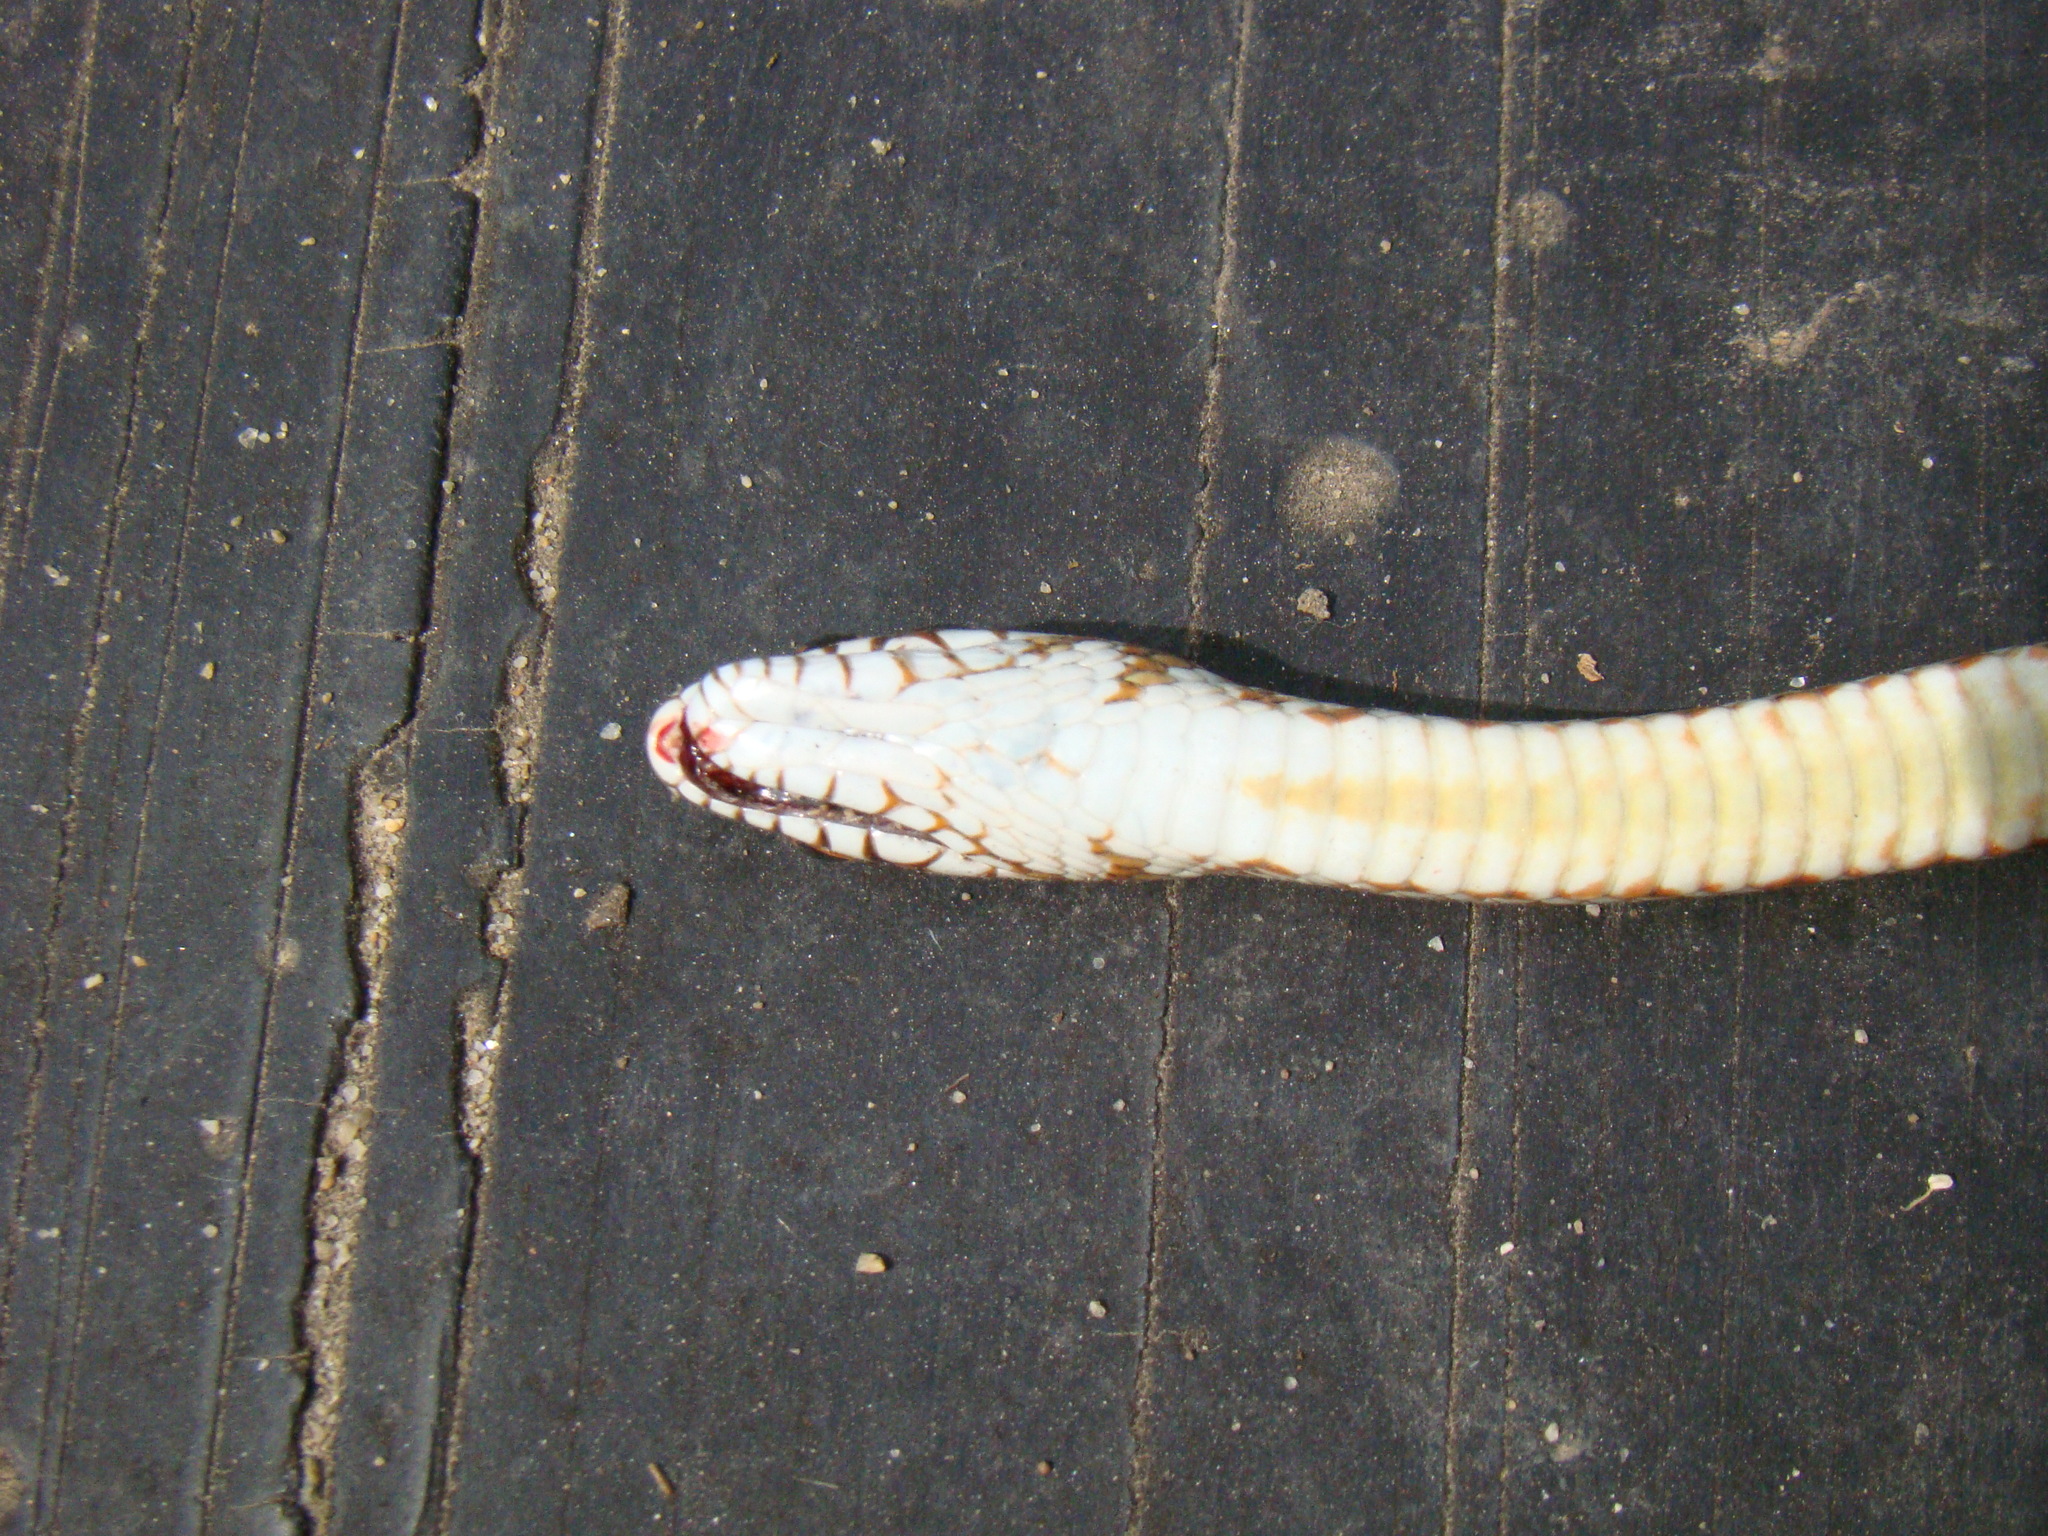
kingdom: Animalia
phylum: Chordata
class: Squamata
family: Colubridae
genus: Dolichophis
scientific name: Dolichophis caspius
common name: Large whip snake
